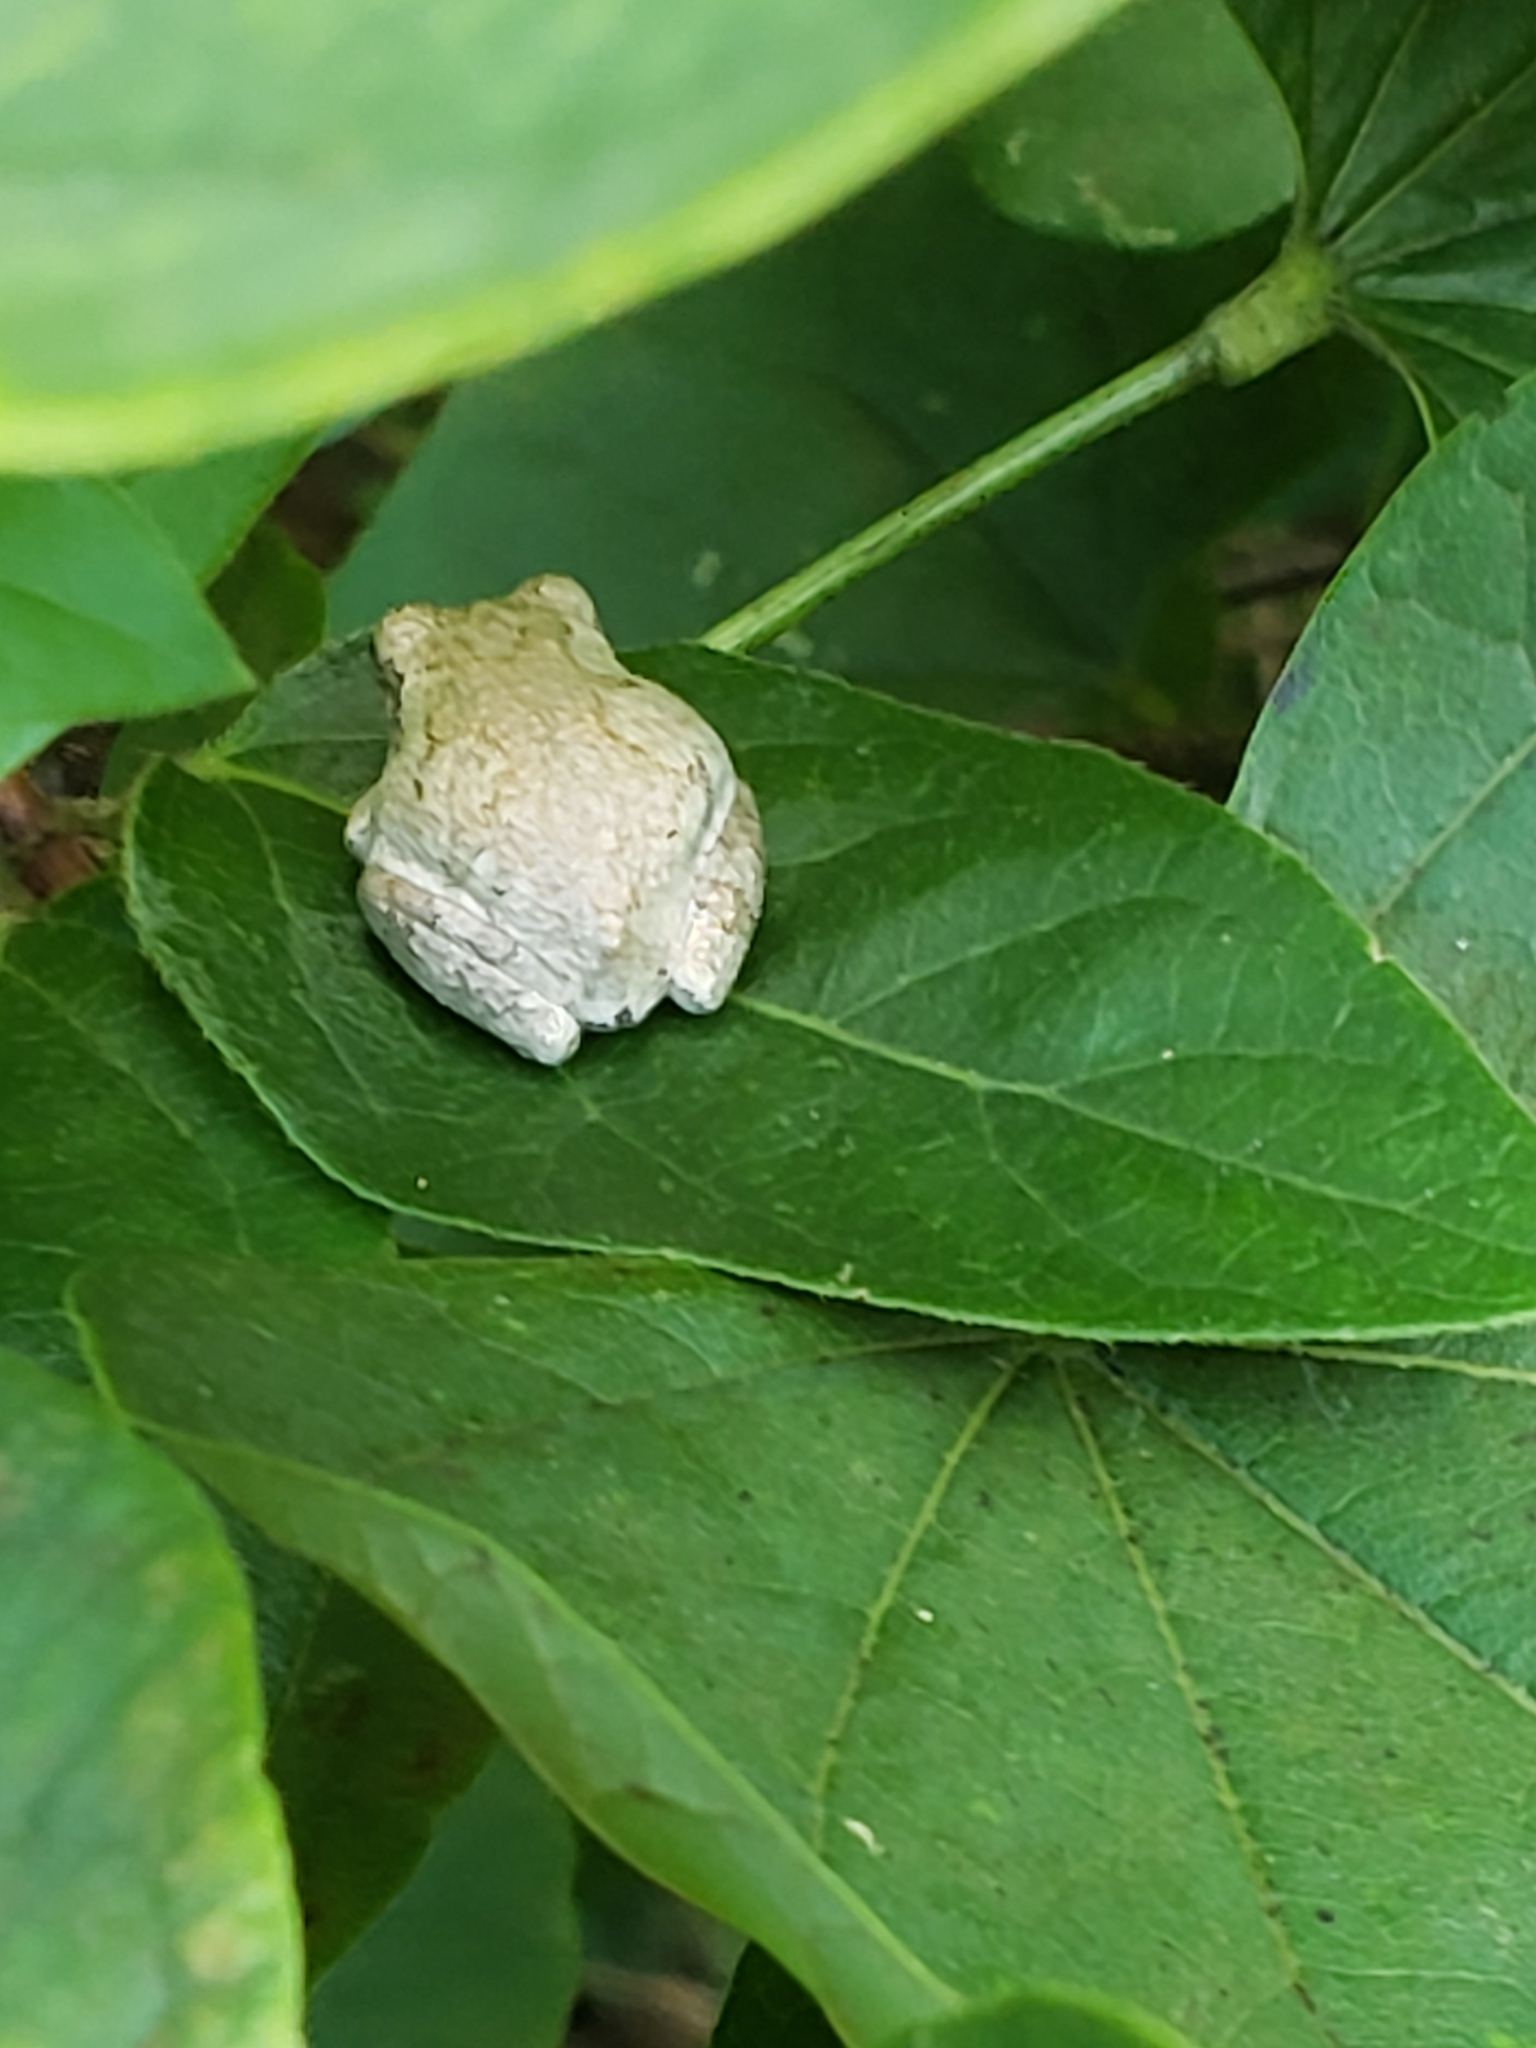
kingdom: Animalia
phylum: Chordata
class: Amphibia
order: Anura
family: Hylidae
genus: Hyla
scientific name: Hyla
